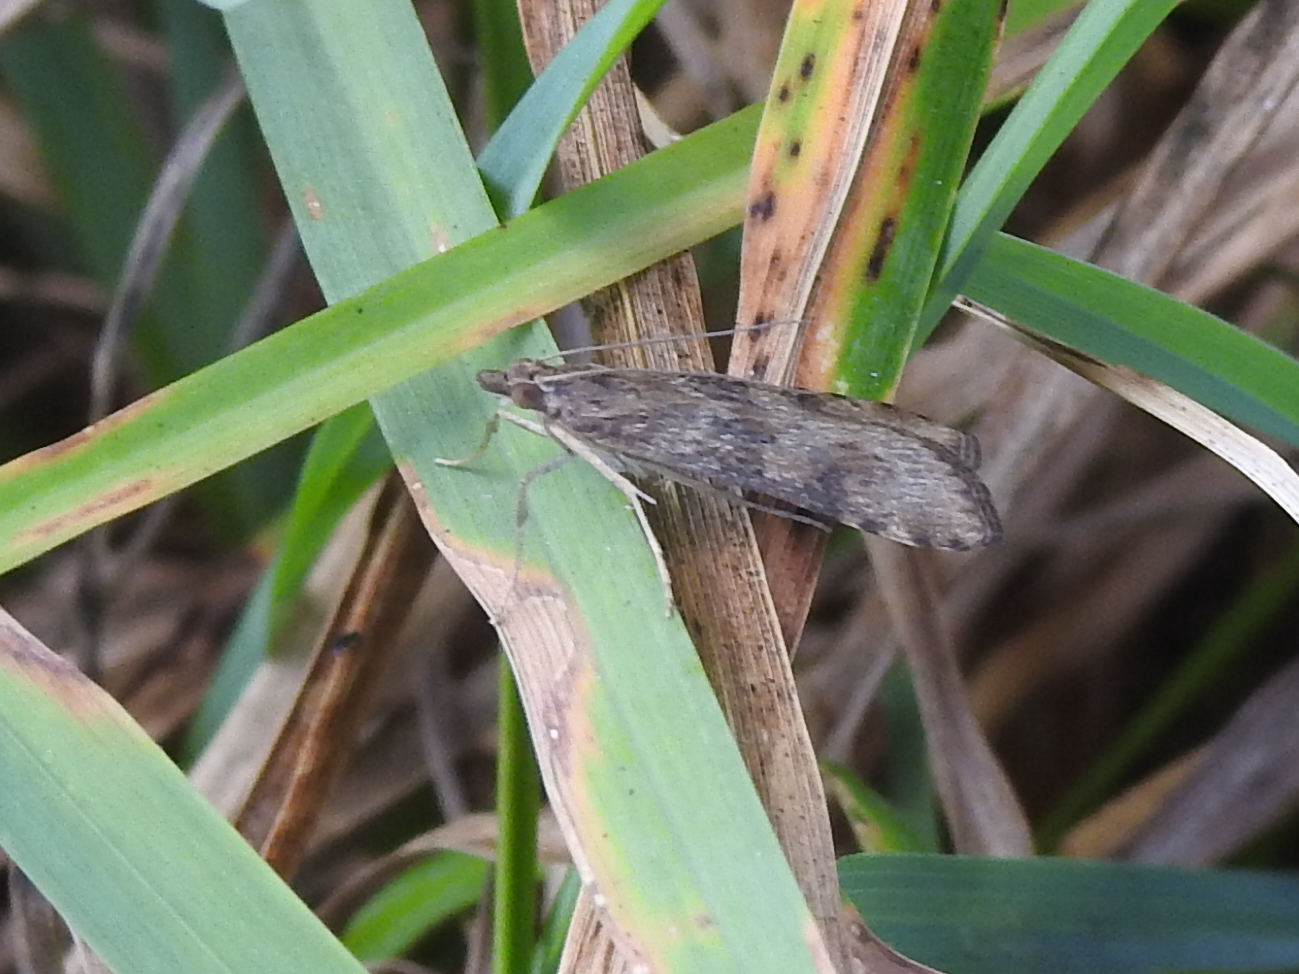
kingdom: Animalia
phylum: Arthropoda
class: Insecta
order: Lepidoptera
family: Crambidae
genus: Nomophila
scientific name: Nomophila nearctica
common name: American rush veneer
